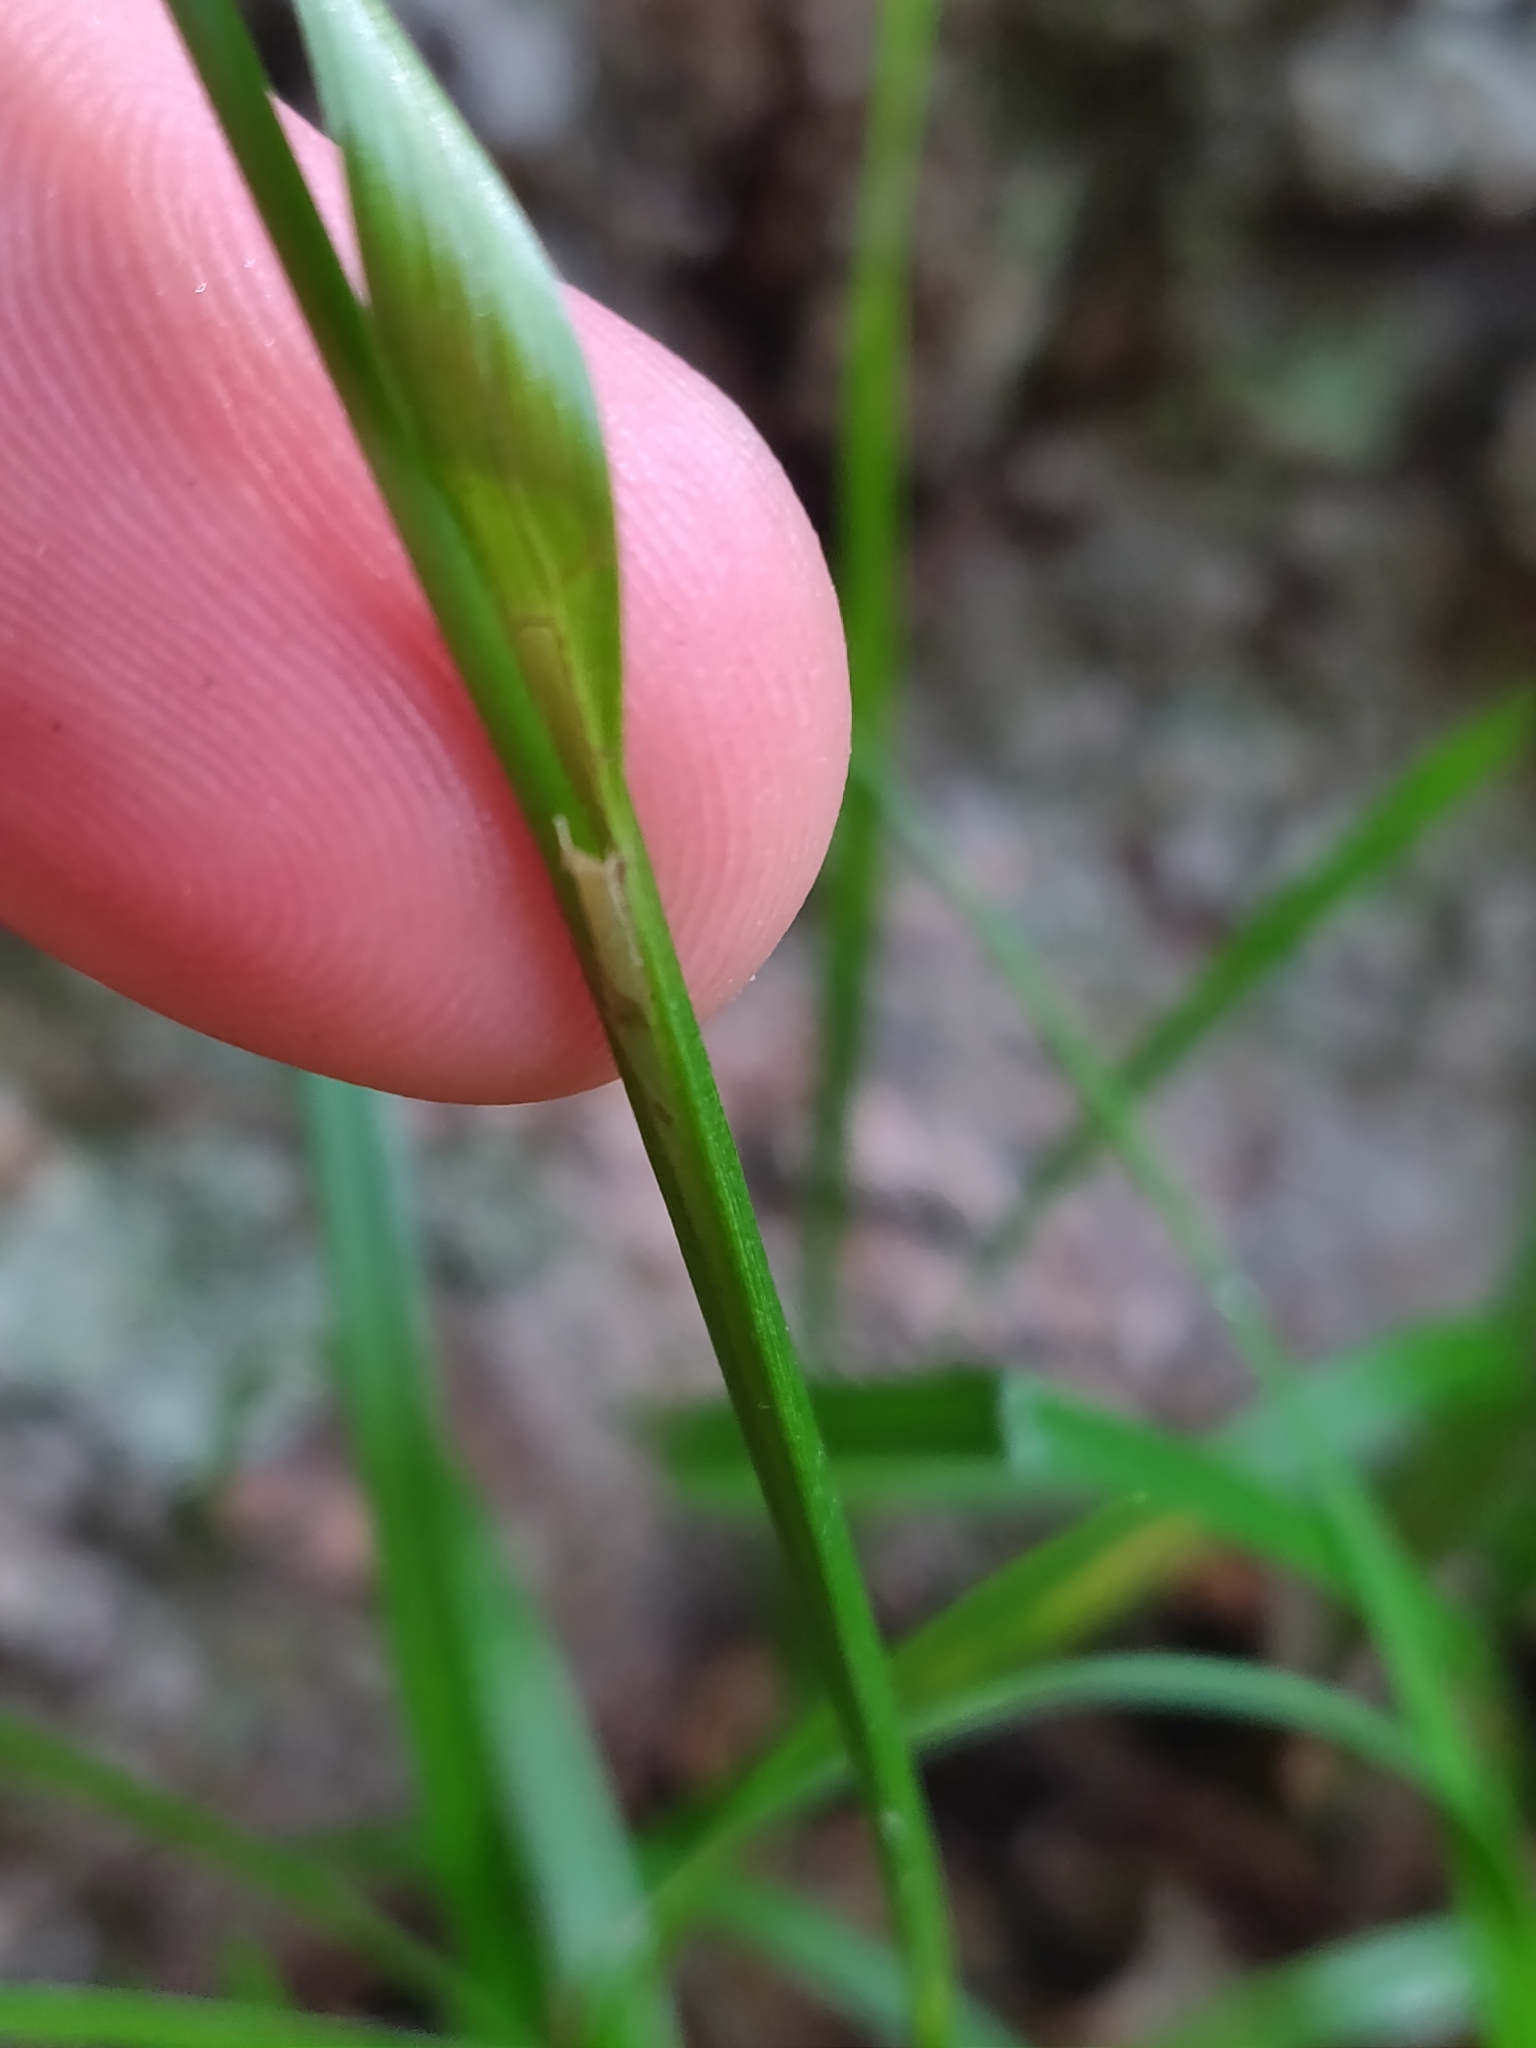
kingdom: Plantae
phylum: Tracheophyta
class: Liliopsida
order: Poales
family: Cyperaceae
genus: Carex
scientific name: Carex intumescens
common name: Greater bladder sedge
